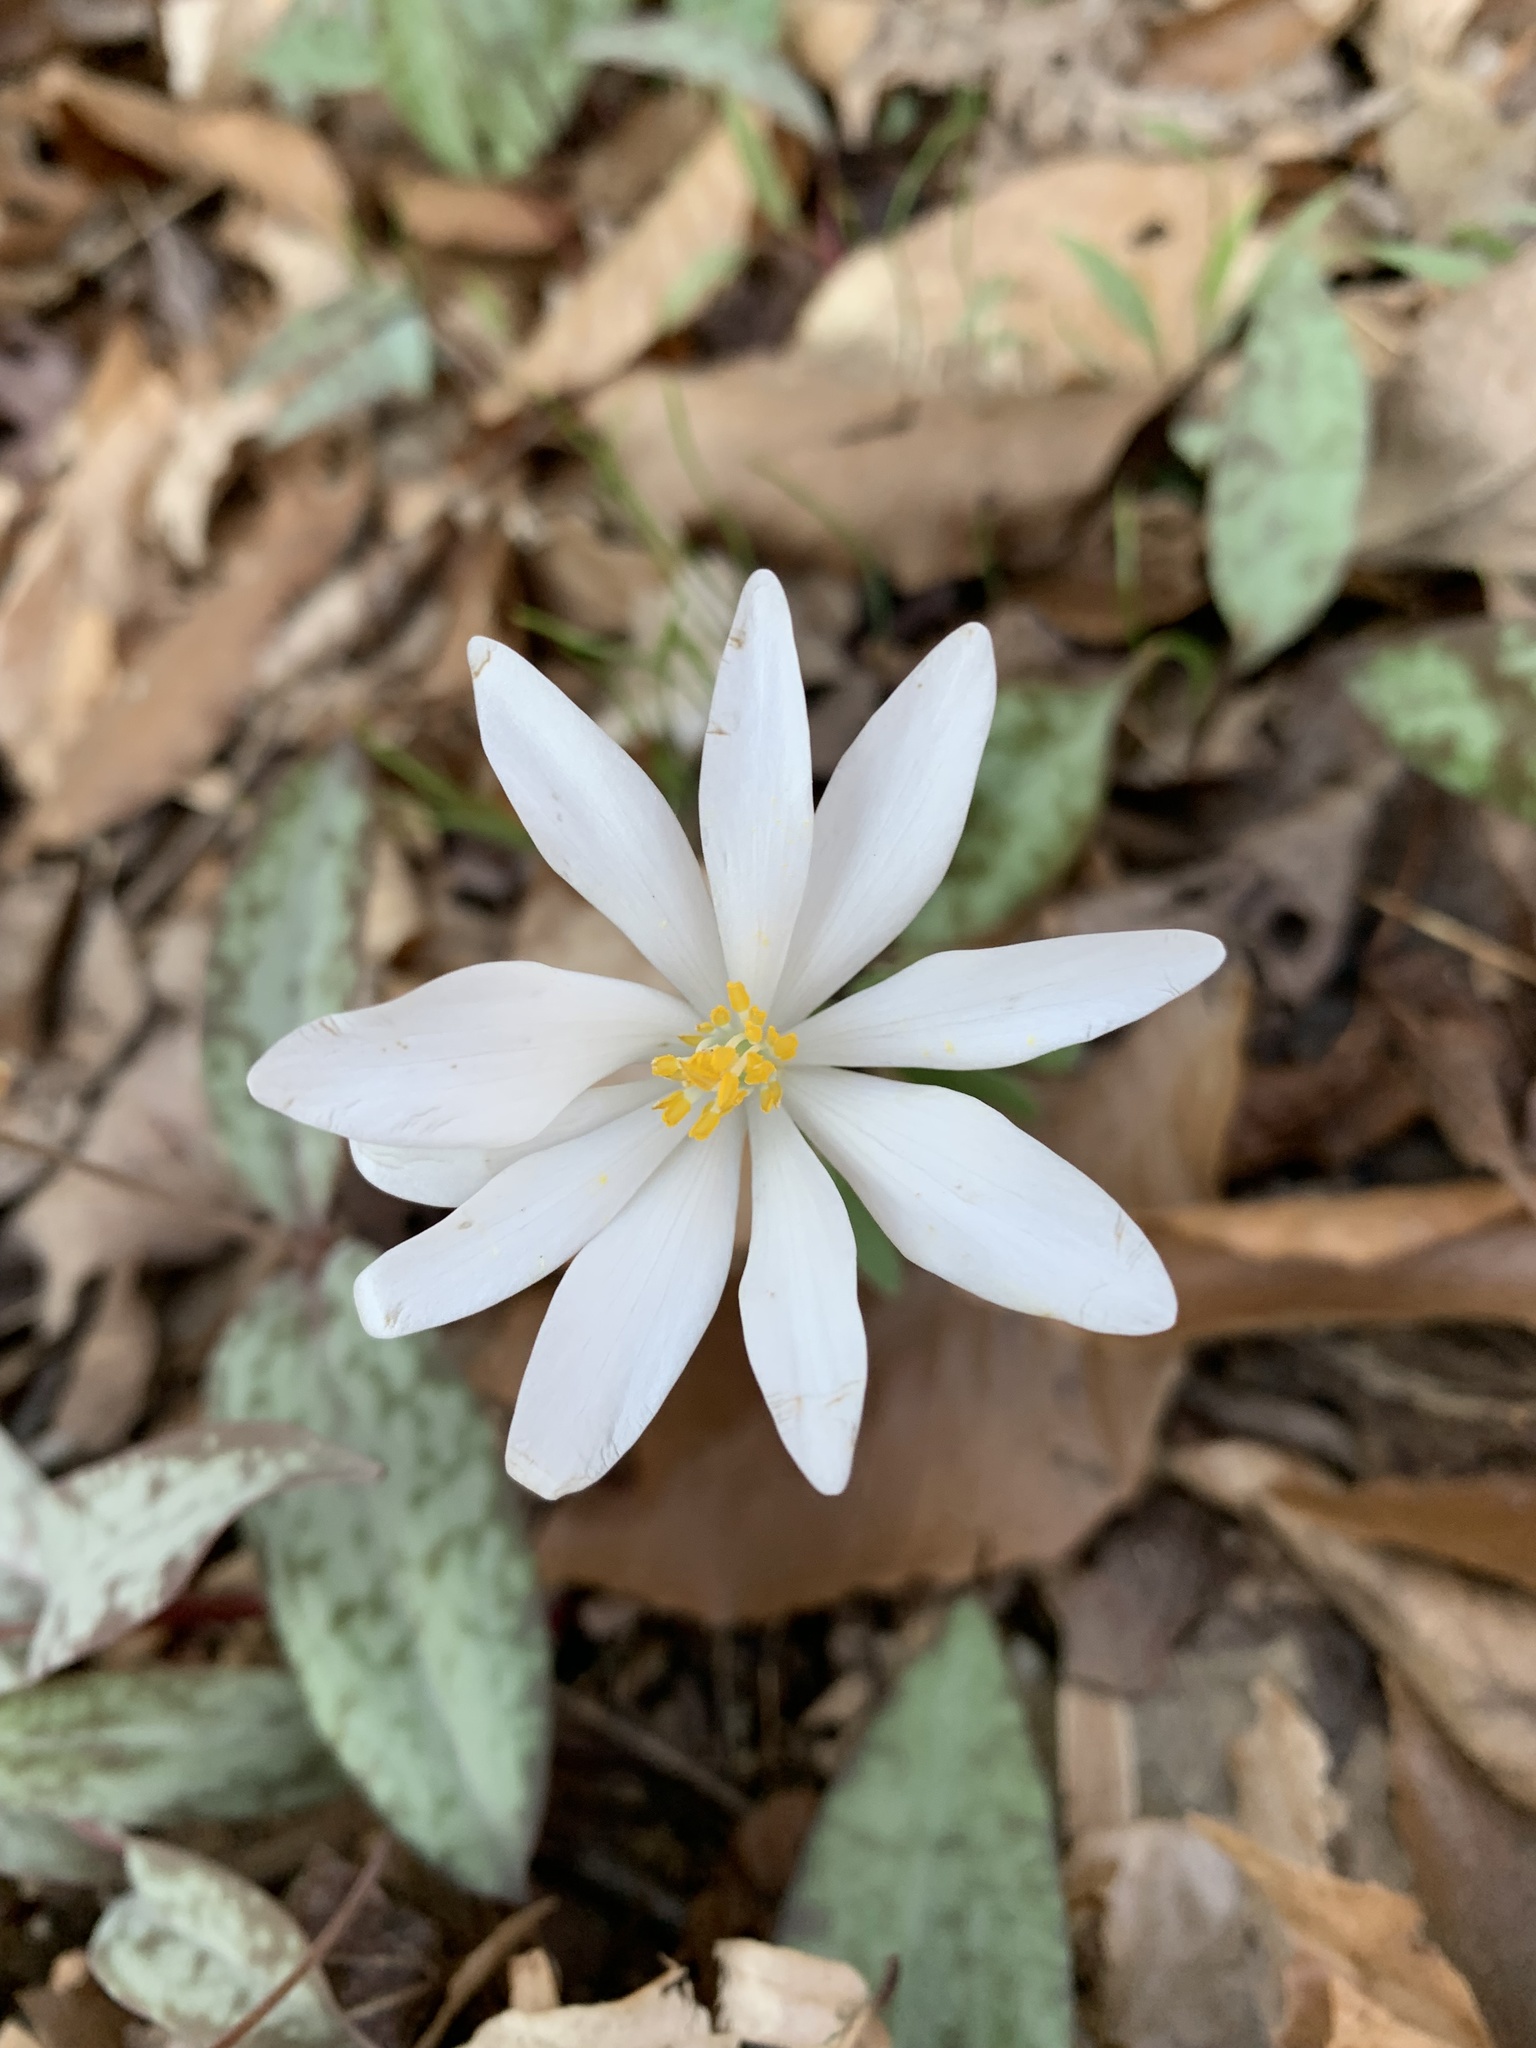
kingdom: Plantae
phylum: Tracheophyta
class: Magnoliopsida
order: Ranunculales
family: Papaveraceae
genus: Sanguinaria
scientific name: Sanguinaria canadensis
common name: Bloodroot
